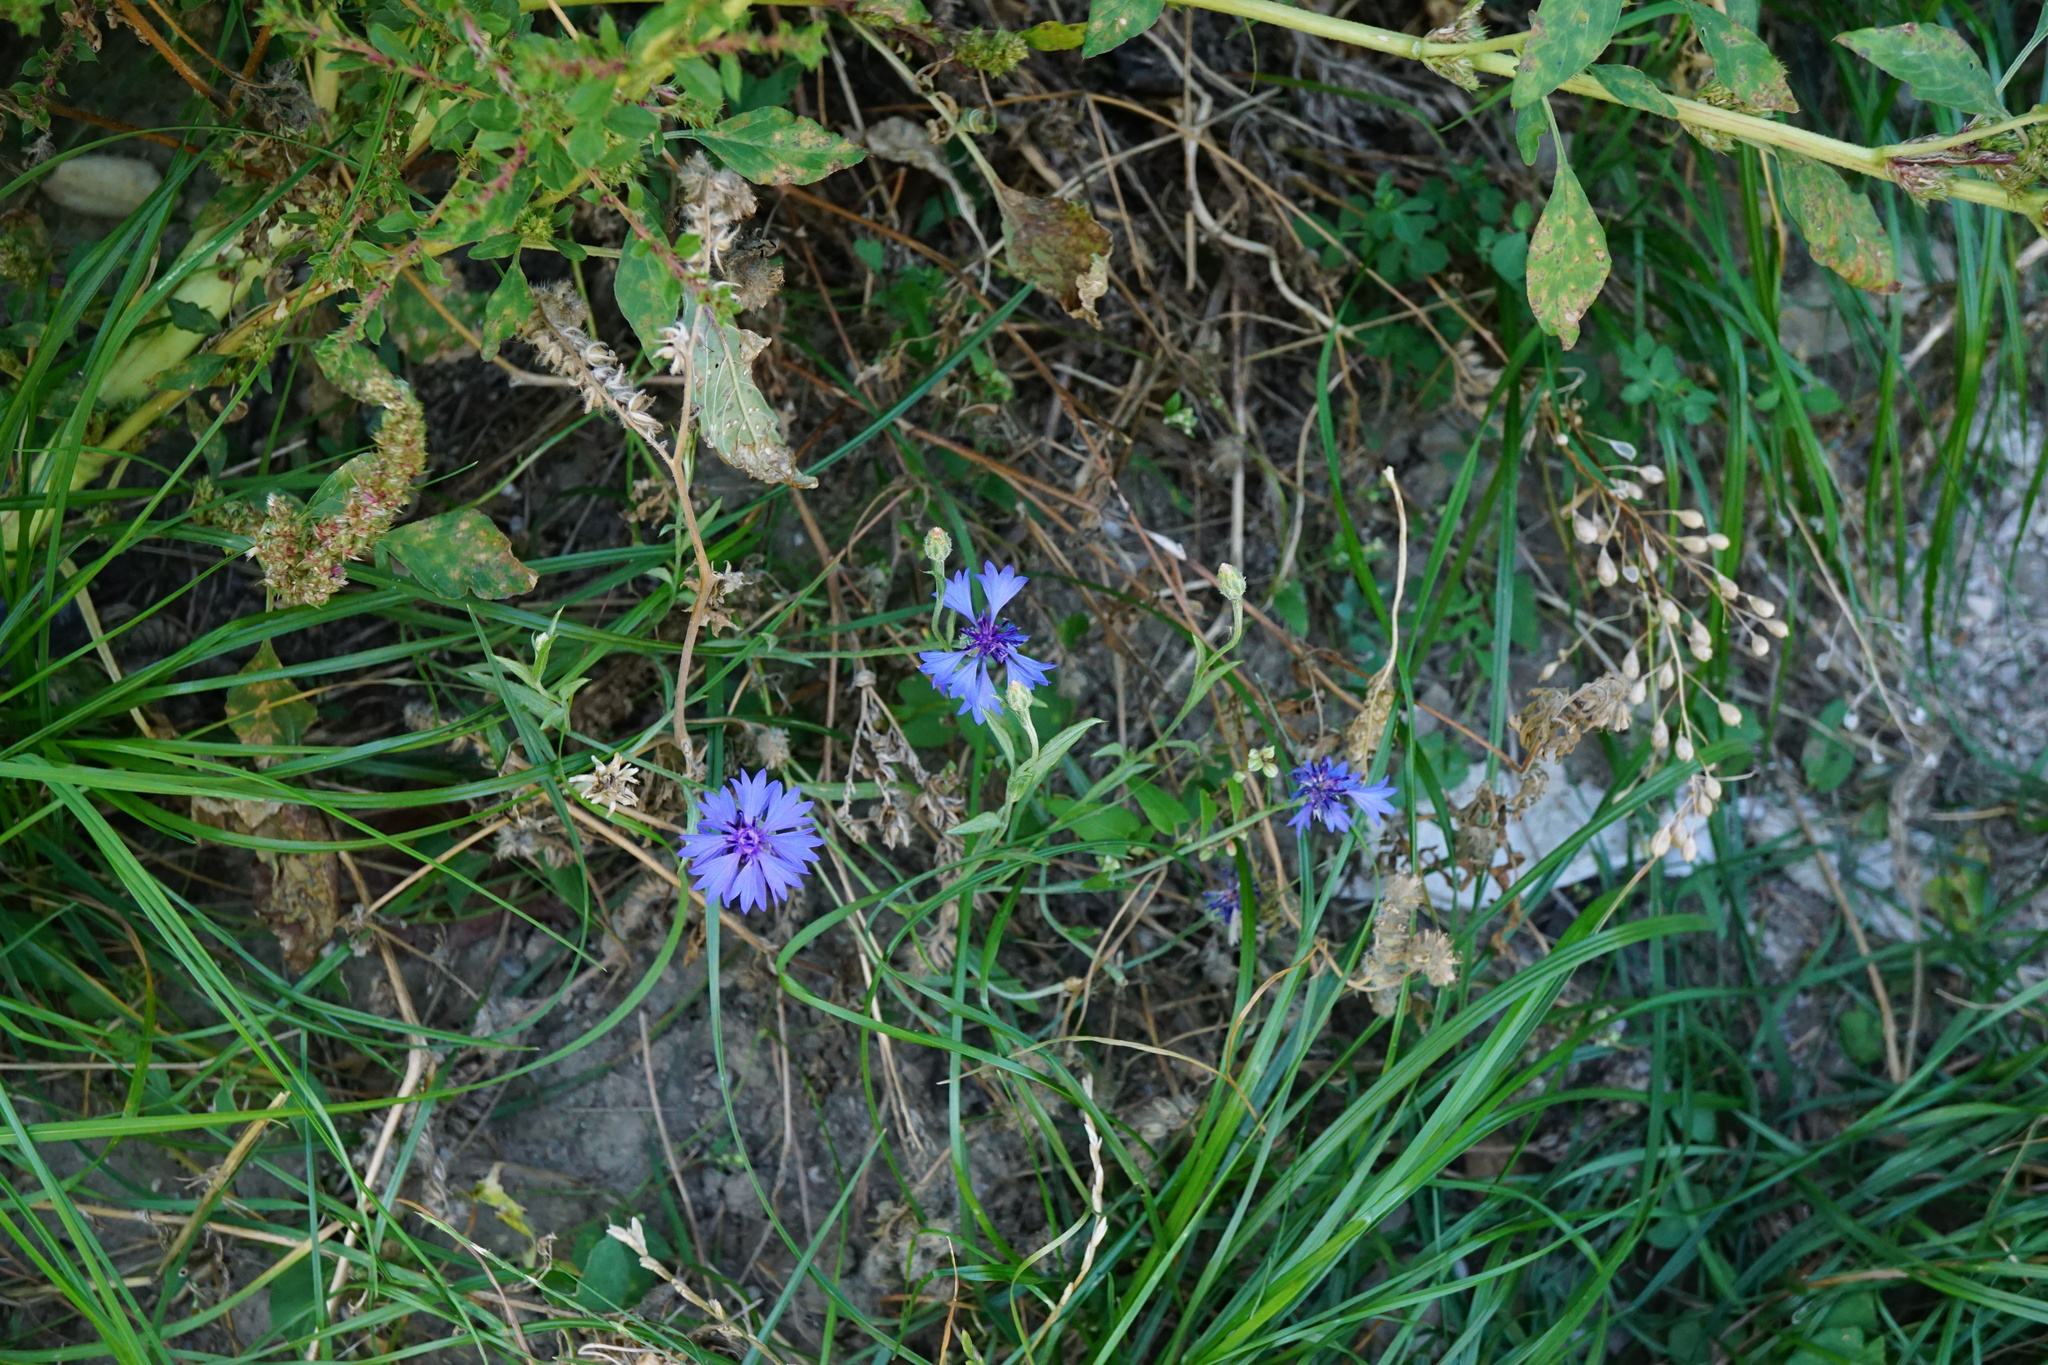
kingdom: Plantae
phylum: Tracheophyta
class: Magnoliopsida
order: Asterales
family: Asteraceae
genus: Centaurea
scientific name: Centaurea cyanus
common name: Cornflower
